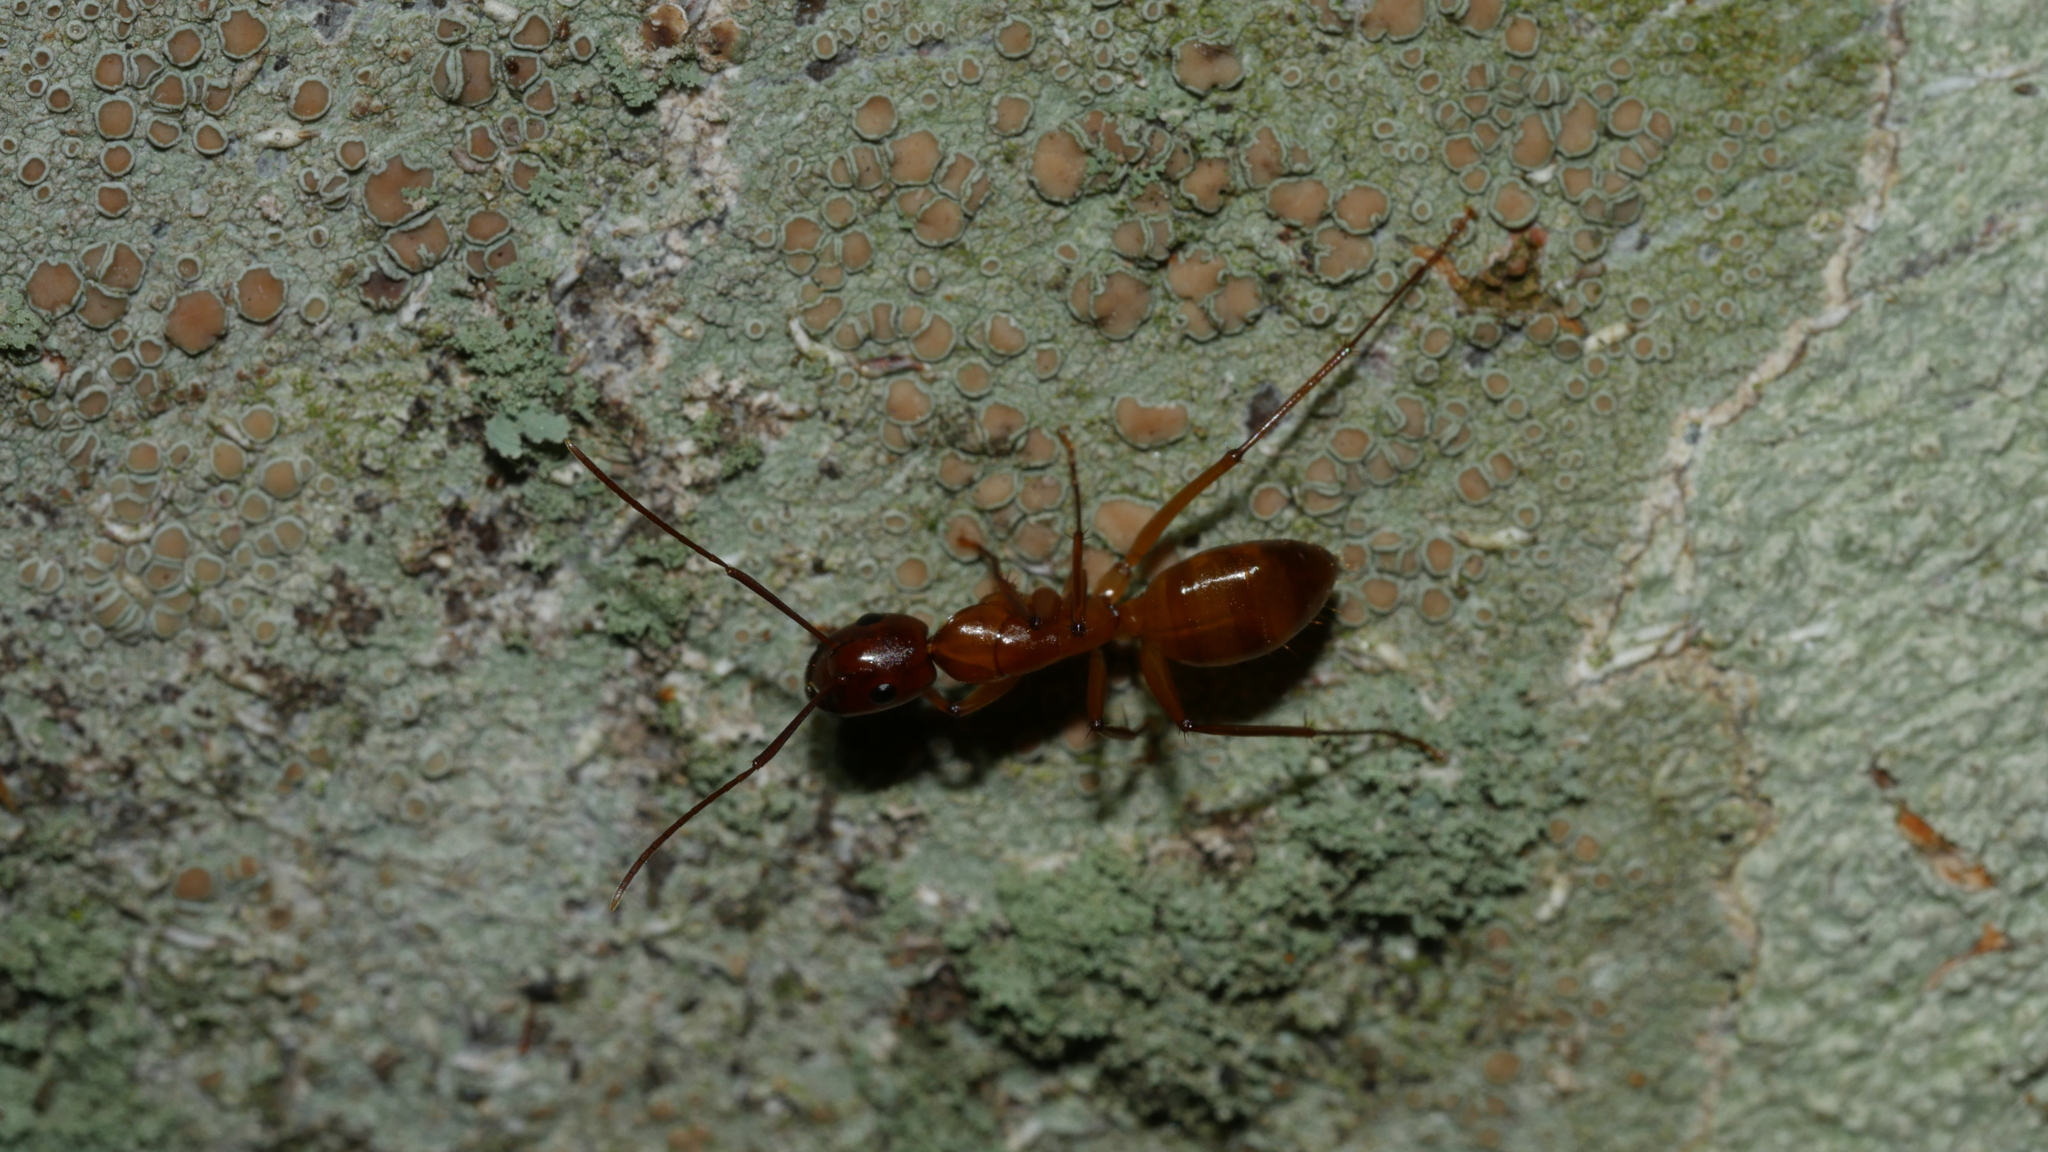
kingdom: Animalia
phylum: Arthropoda
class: Insecta
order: Hymenoptera
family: Formicidae
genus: Camponotus
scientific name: Camponotus castaneus
